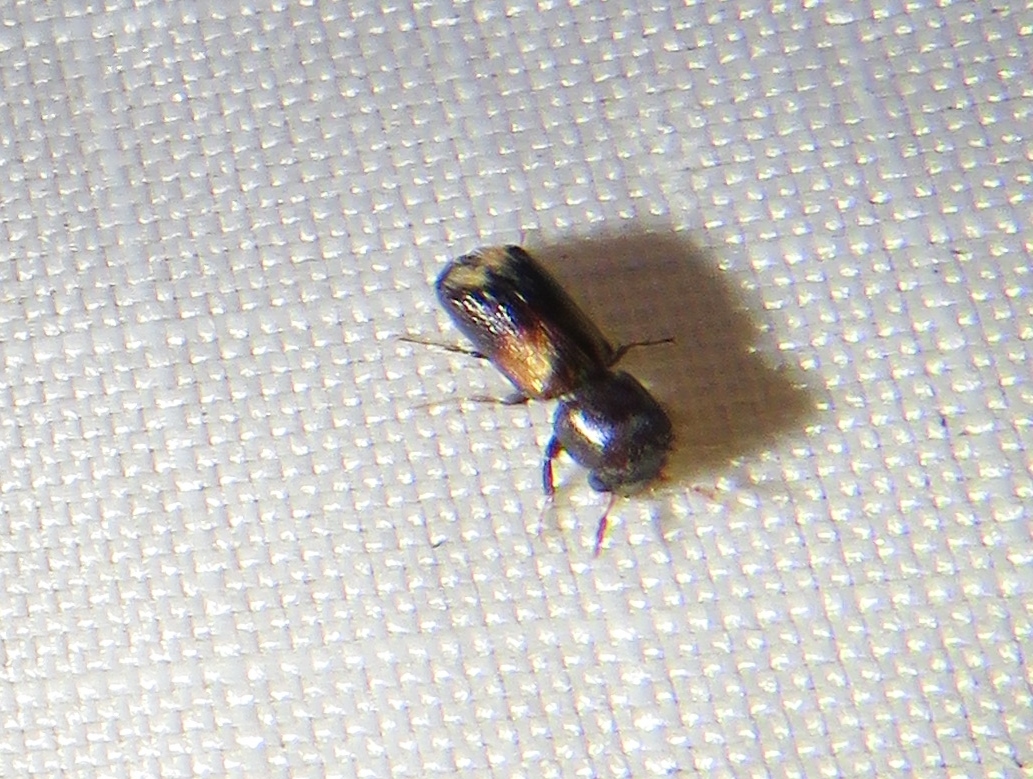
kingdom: Animalia
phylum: Arthropoda
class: Insecta
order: Coleoptera
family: Bostrichidae
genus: Xylobiops
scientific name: Xylobiops basilaris
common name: Red-shouldered bostrichid
